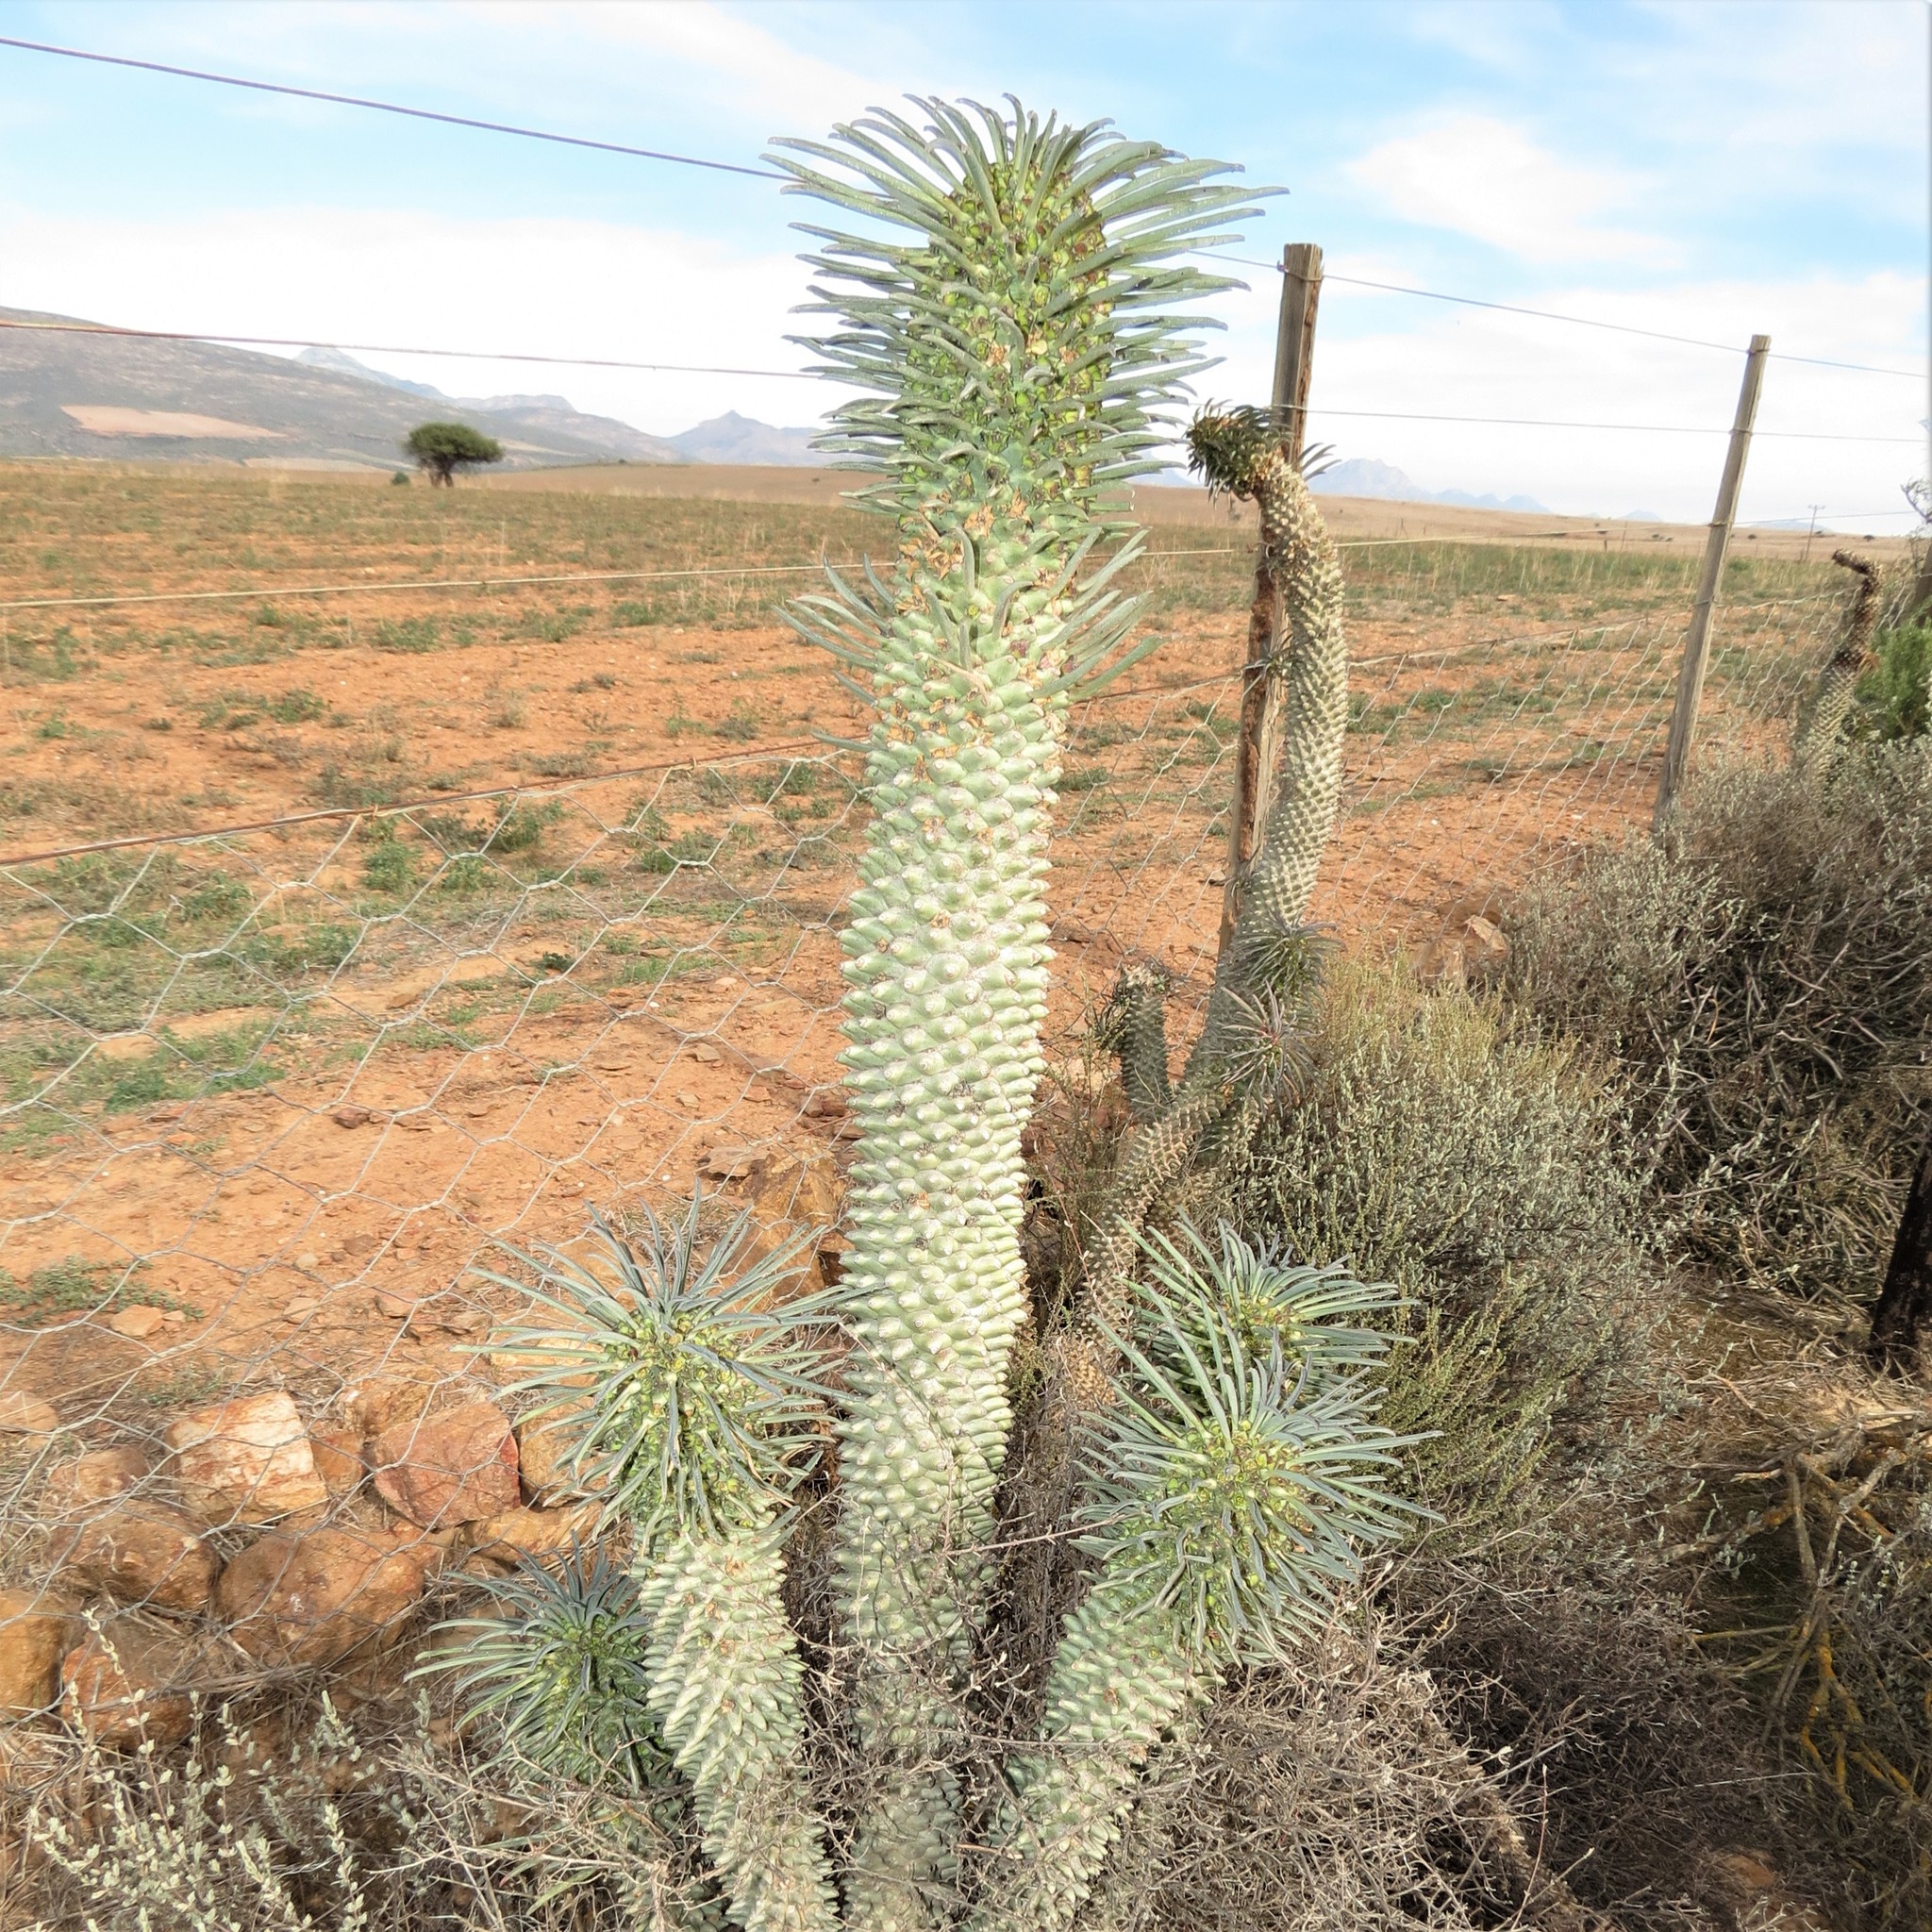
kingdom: Plantae
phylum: Tracheophyta
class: Magnoliopsida
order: Malpighiales
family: Euphorbiaceae
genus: Euphorbia
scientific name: Euphorbia clandestina
